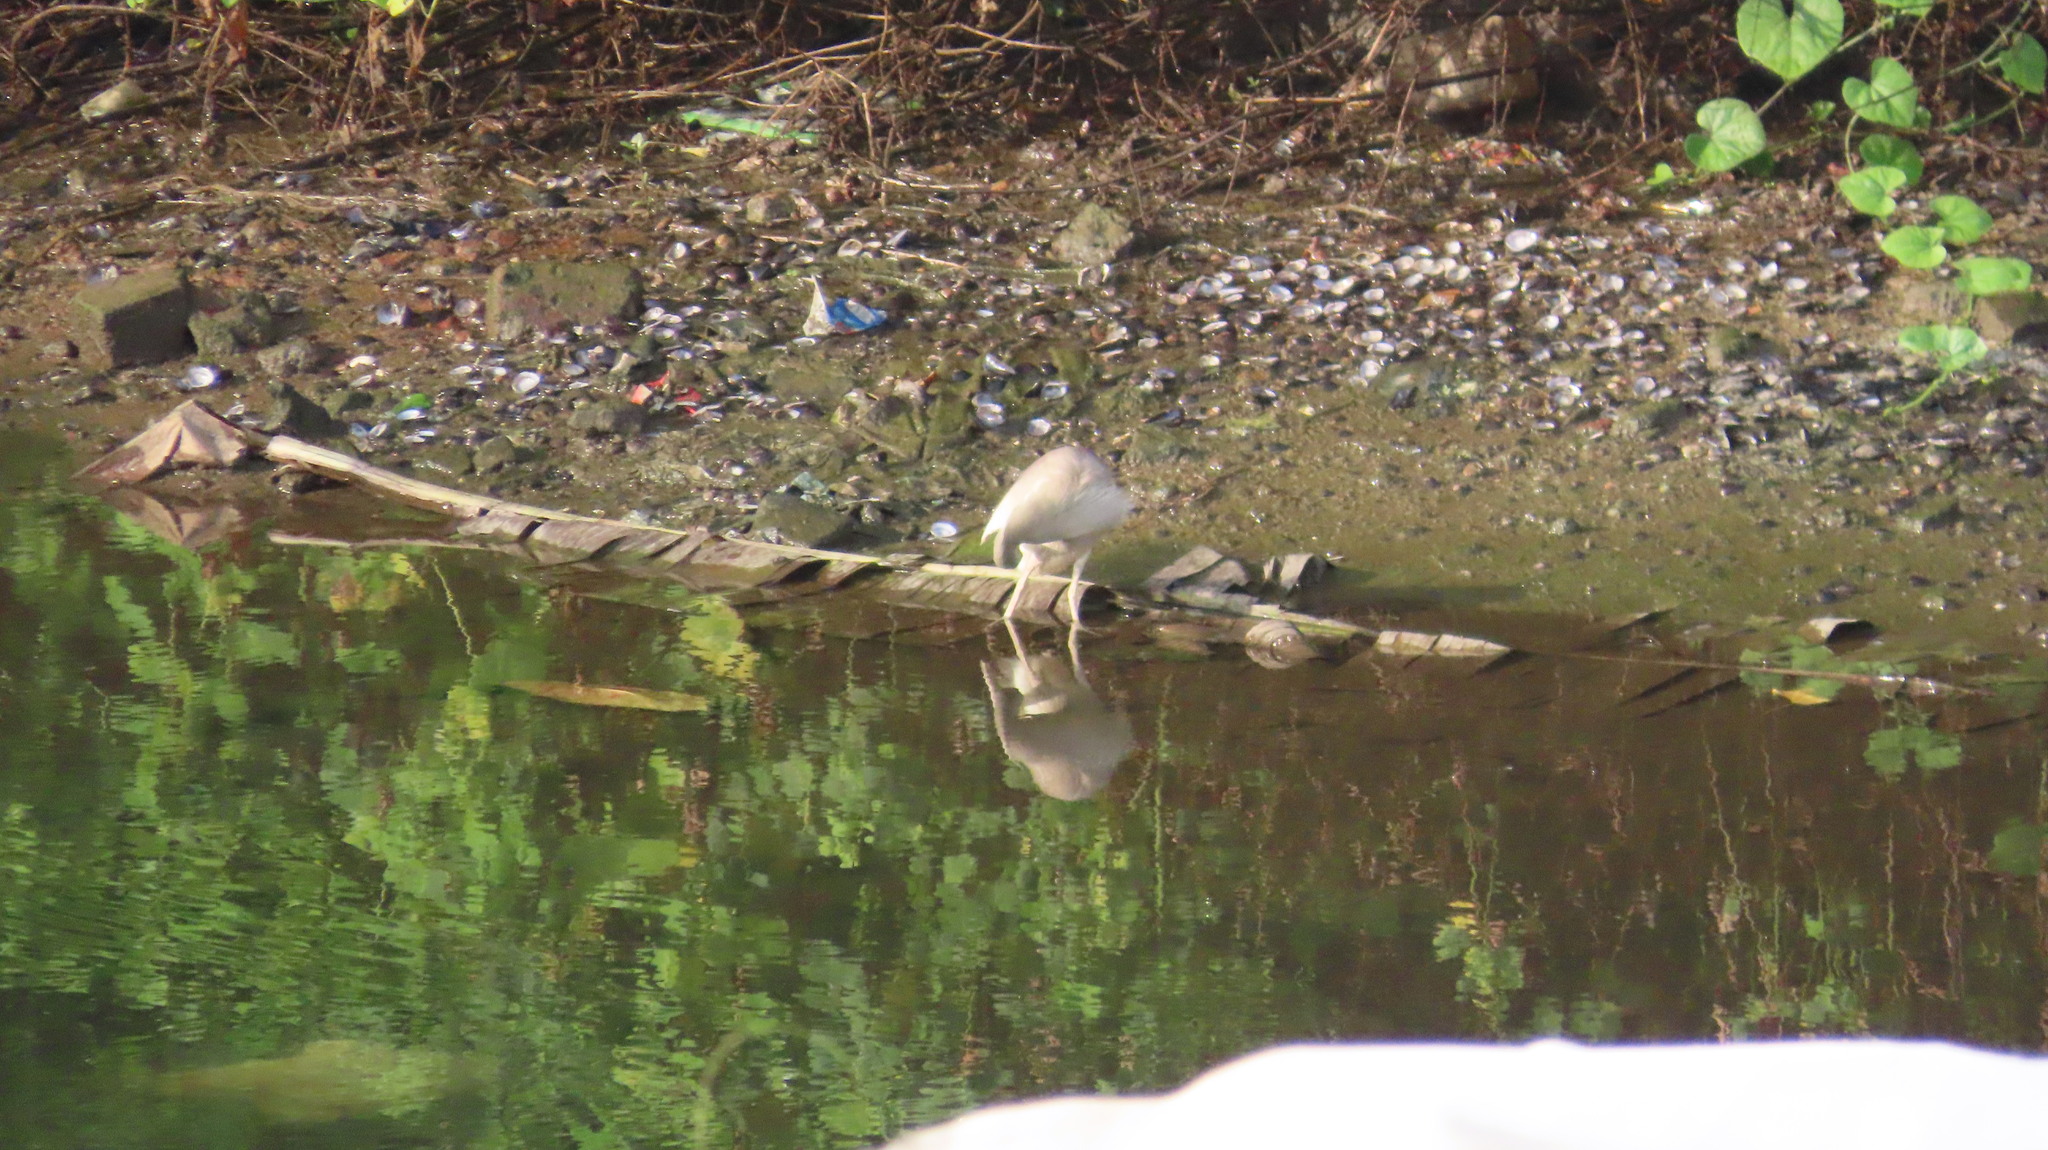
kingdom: Animalia
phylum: Chordata
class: Aves
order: Pelecaniformes
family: Ardeidae
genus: Ardeola
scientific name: Ardeola grayii
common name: Indian pond heron
